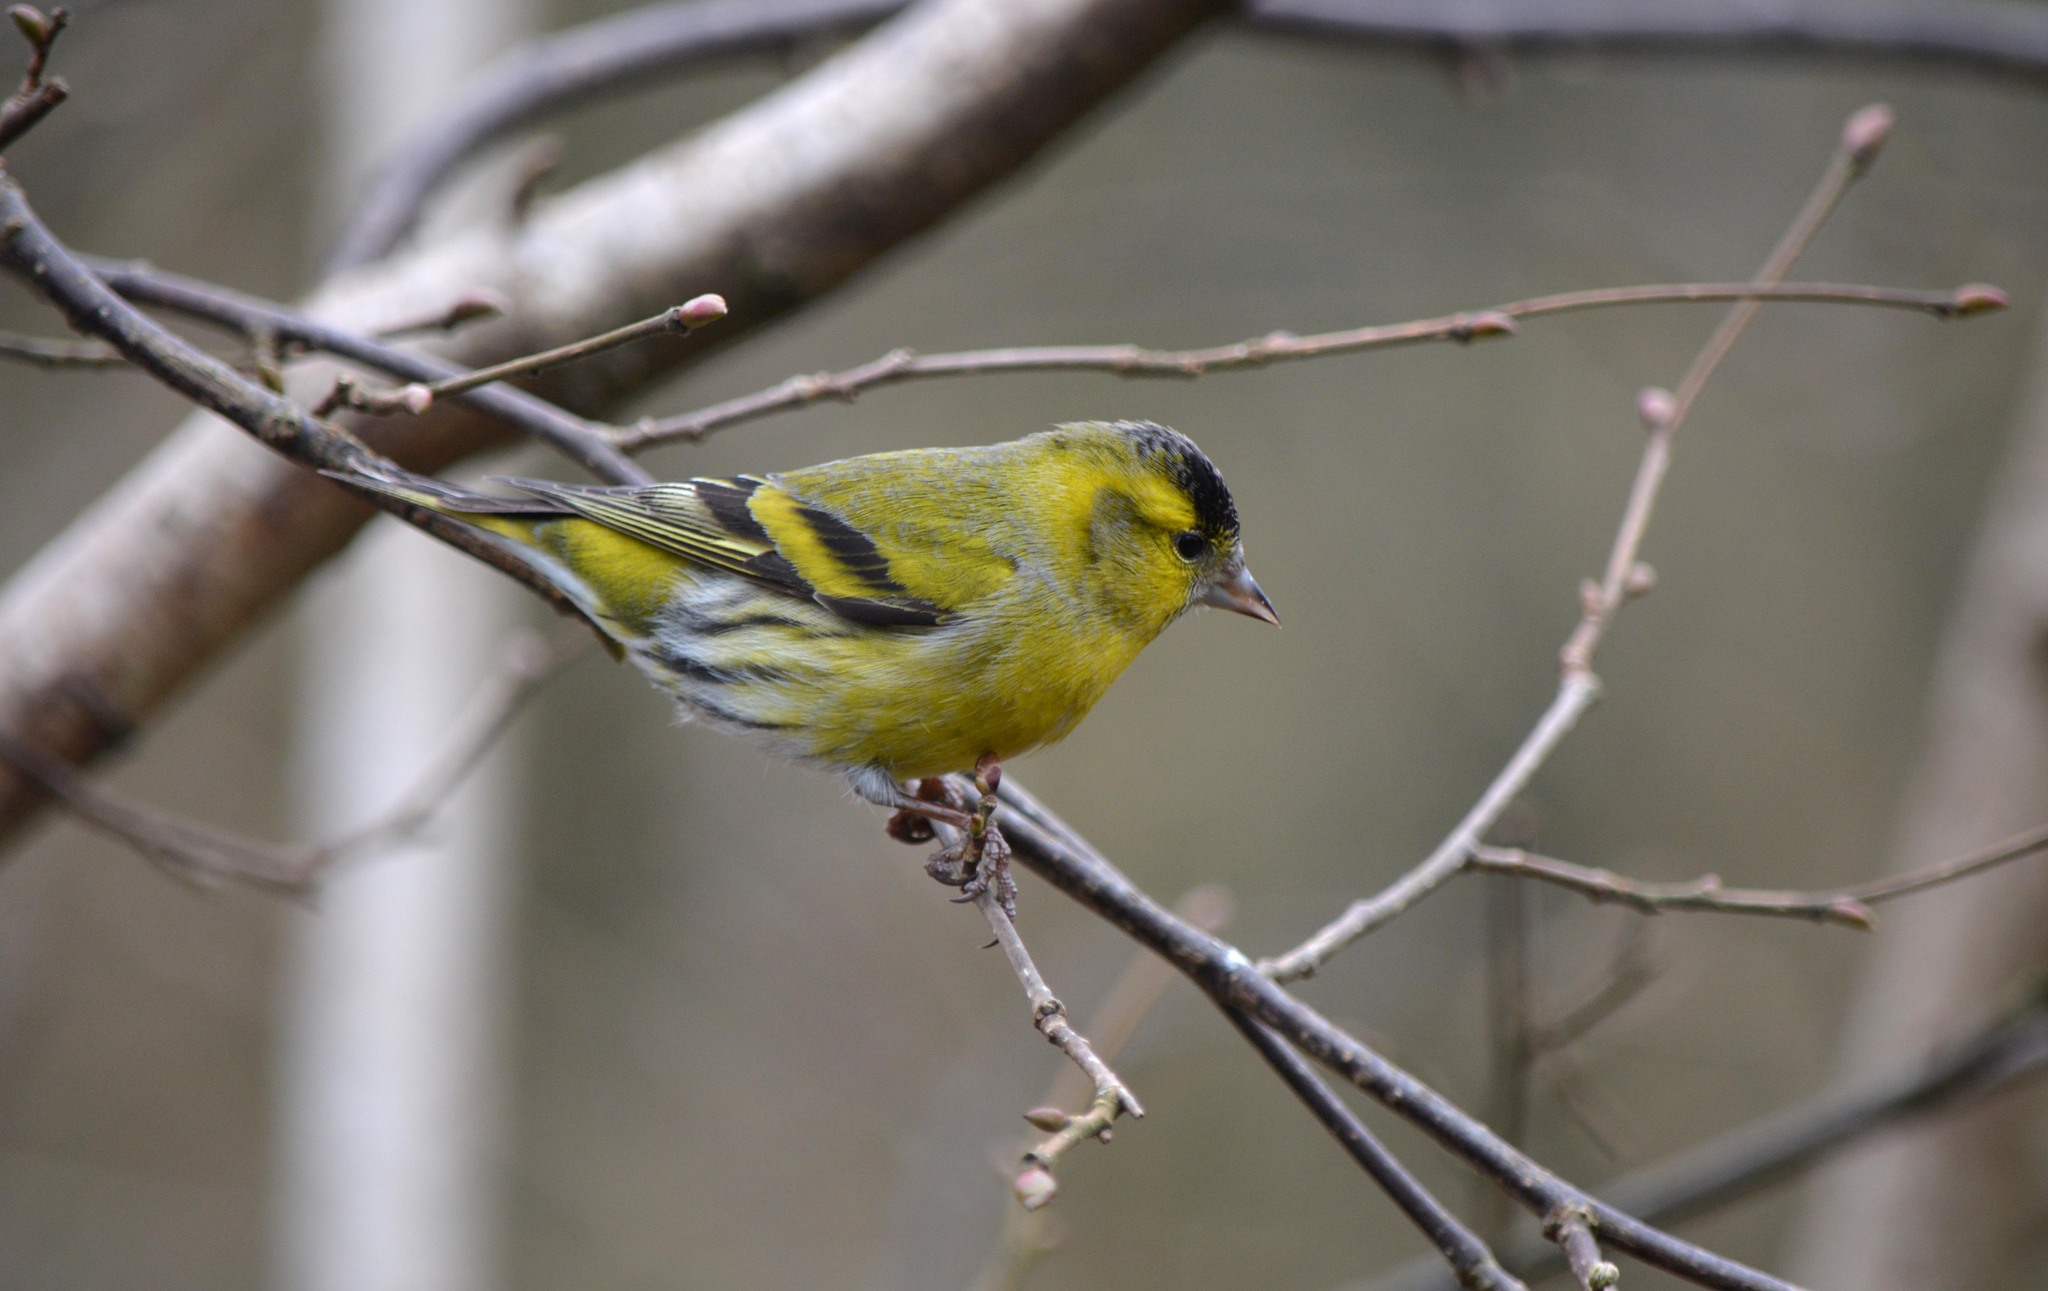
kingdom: Animalia
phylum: Chordata
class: Aves
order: Passeriformes
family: Fringillidae
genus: Spinus
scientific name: Spinus spinus
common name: Eurasian siskin
